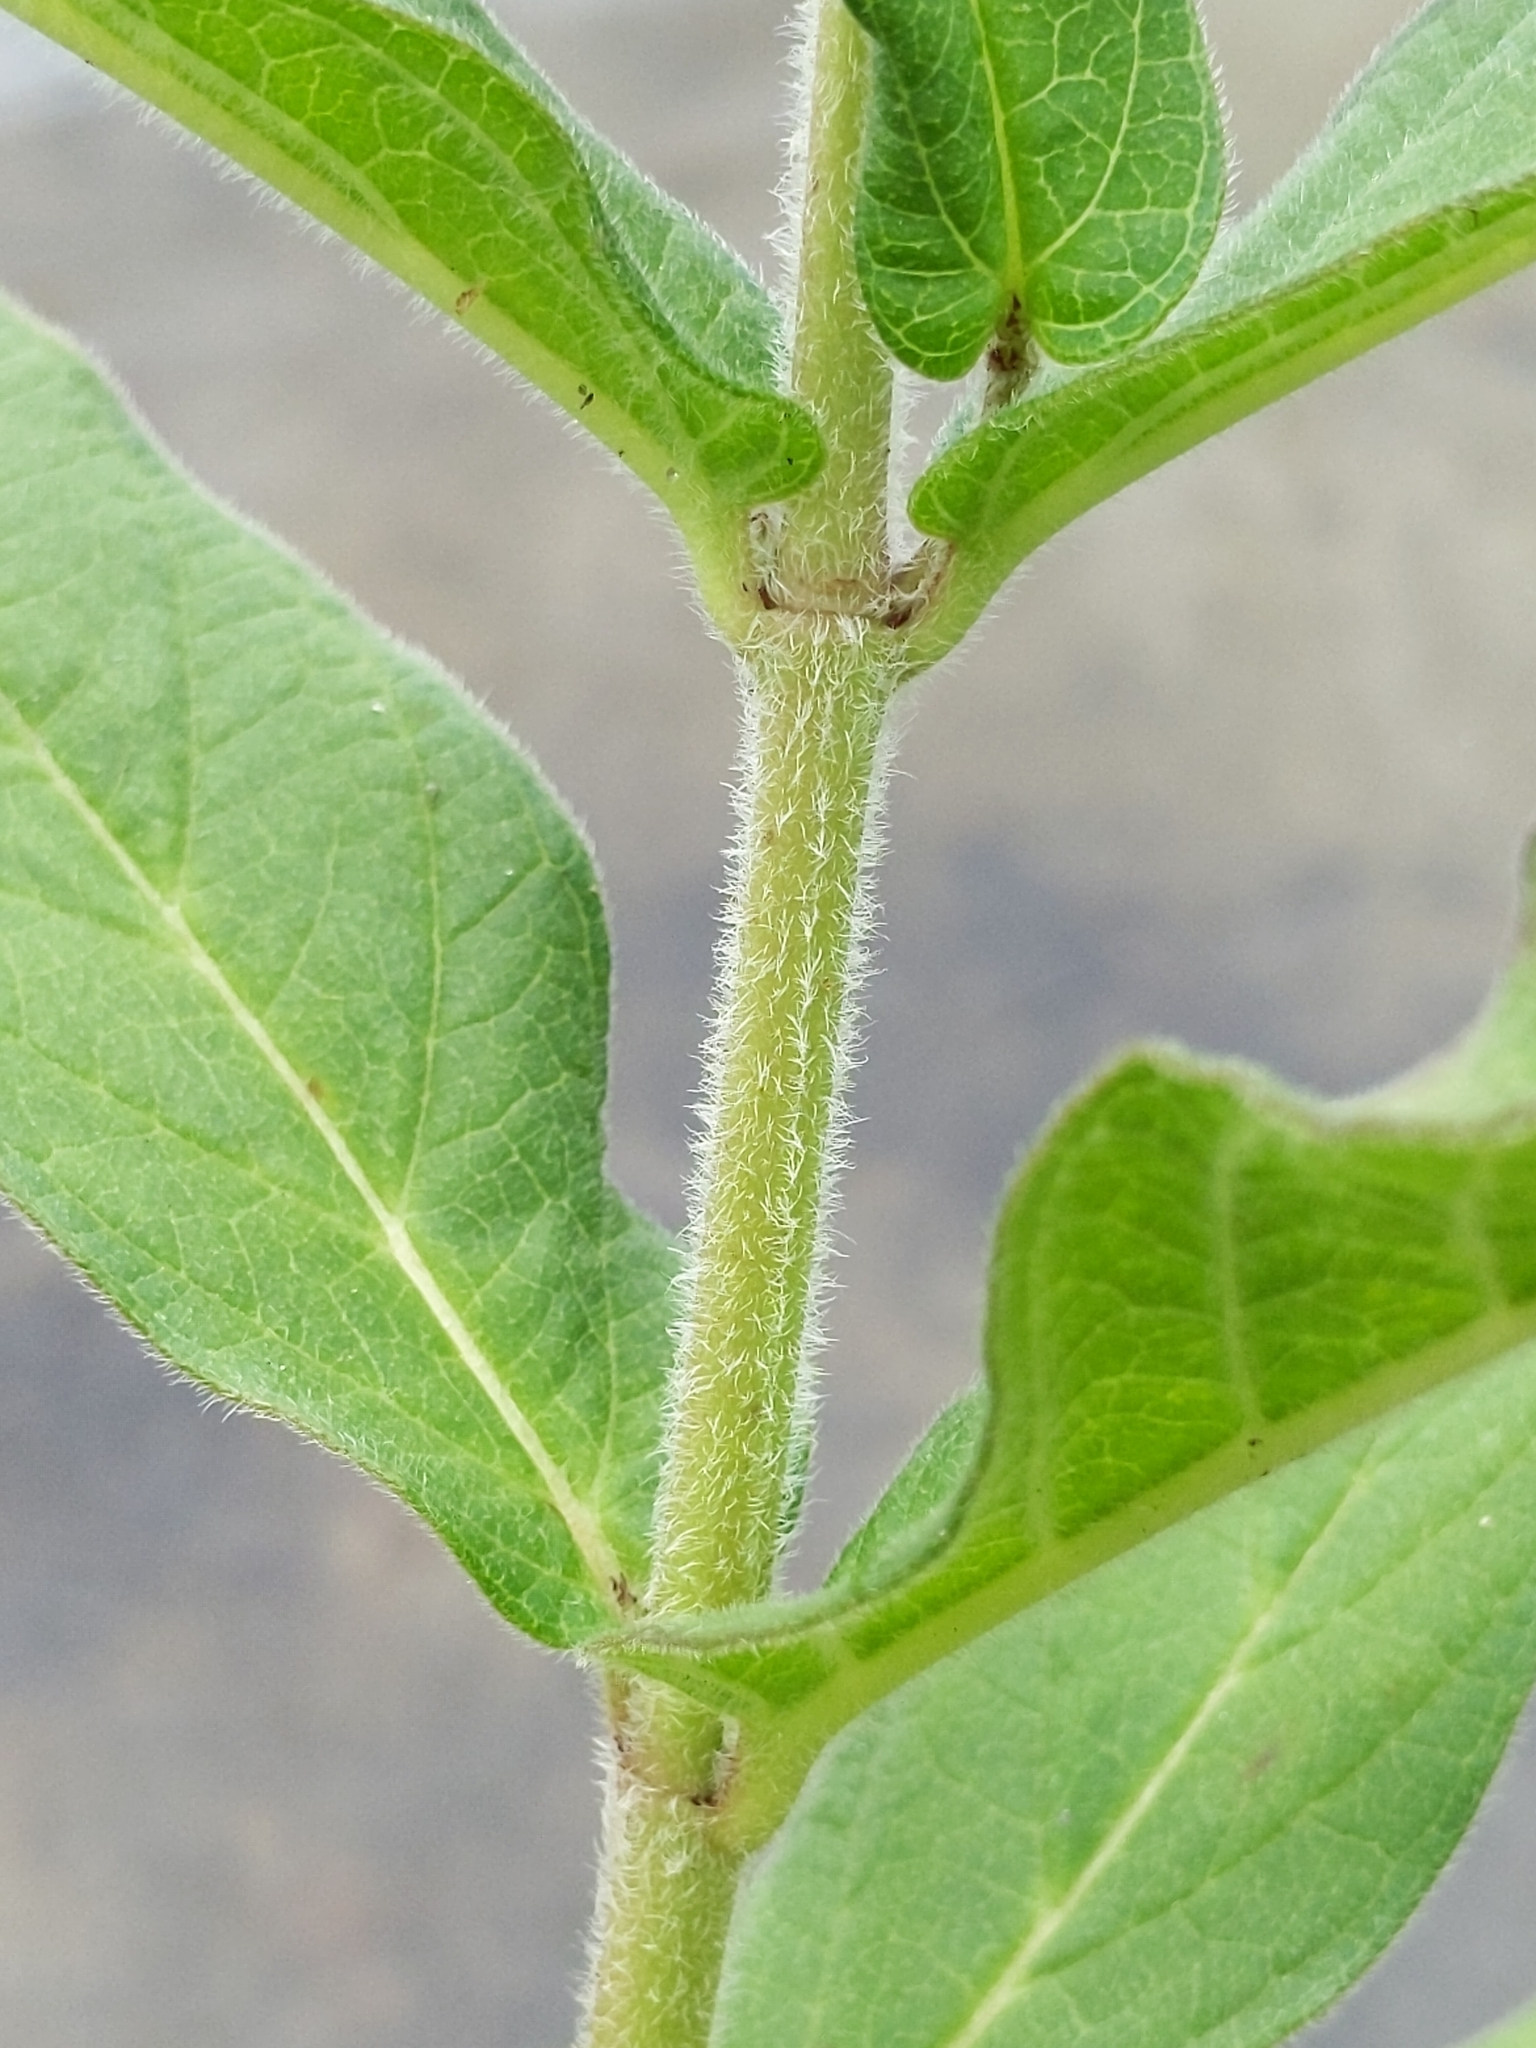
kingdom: Plantae
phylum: Tracheophyta
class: Magnoliopsida
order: Gentianales
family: Apocynaceae
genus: Asclepias
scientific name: Asclepias incarnata
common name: Swamp milkweed
